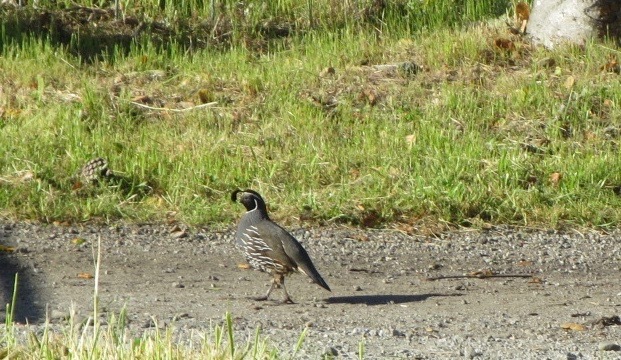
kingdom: Animalia
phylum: Chordata
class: Aves
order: Galliformes
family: Odontophoridae
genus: Callipepla
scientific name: Callipepla californica
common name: California quail
